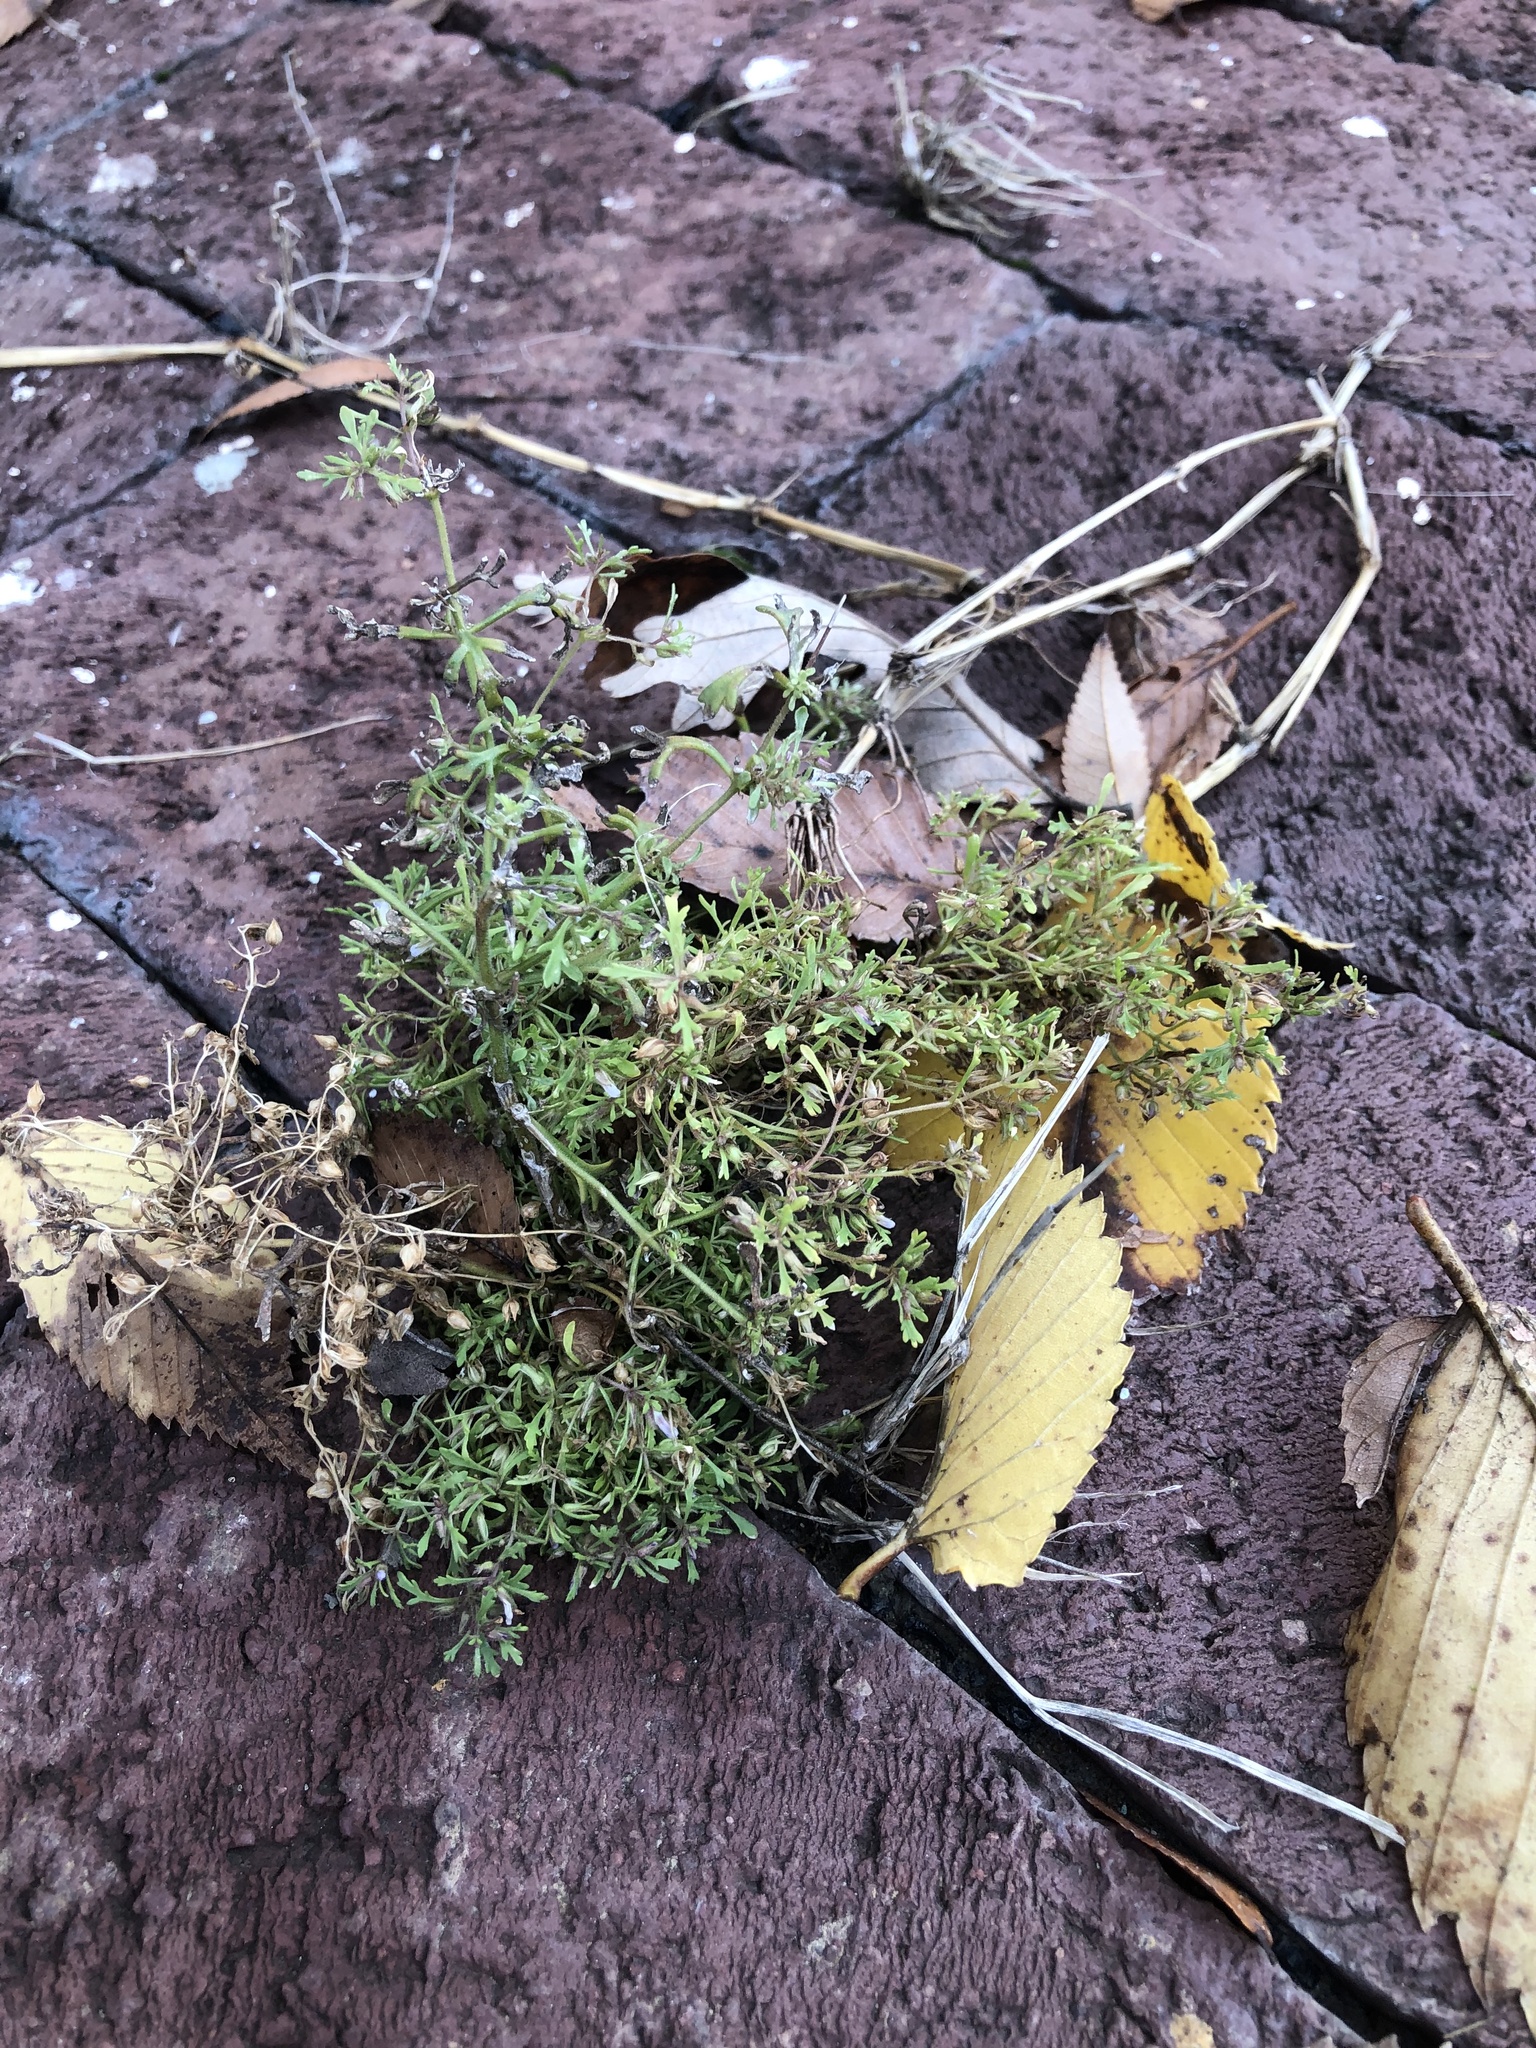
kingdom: Plantae
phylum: Tracheophyta
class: Magnoliopsida
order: Lamiales
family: Plantaginaceae
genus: Leucospora
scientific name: Leucospora multifida
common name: Narrow-leaf paleseed
